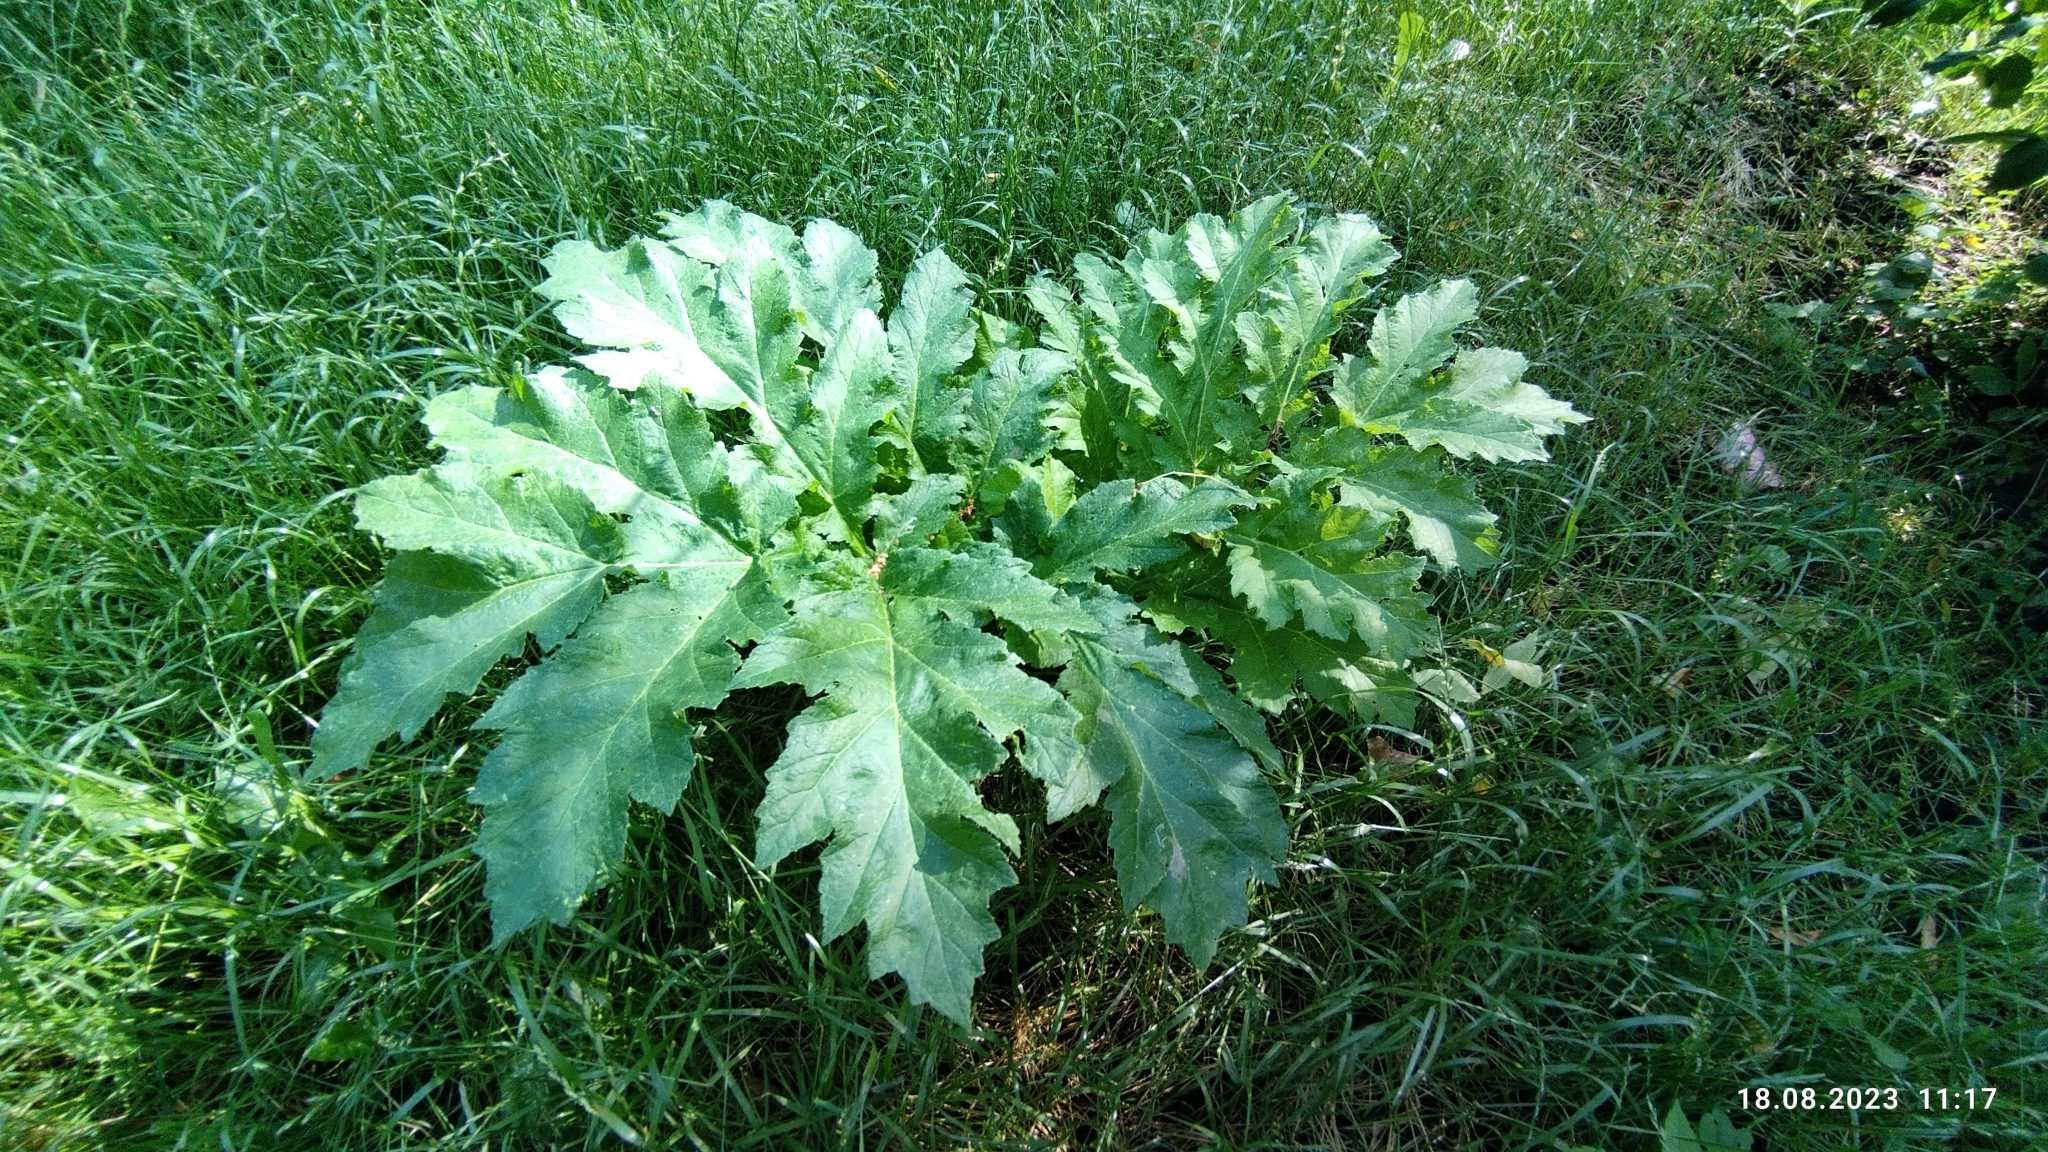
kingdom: Plantae
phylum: Tracheophyta
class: Magnoliopsida
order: Apiales
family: Apiaceae
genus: Heracleum
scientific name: Heracleum sosnowskyi
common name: Sosnowsky's hogweed
